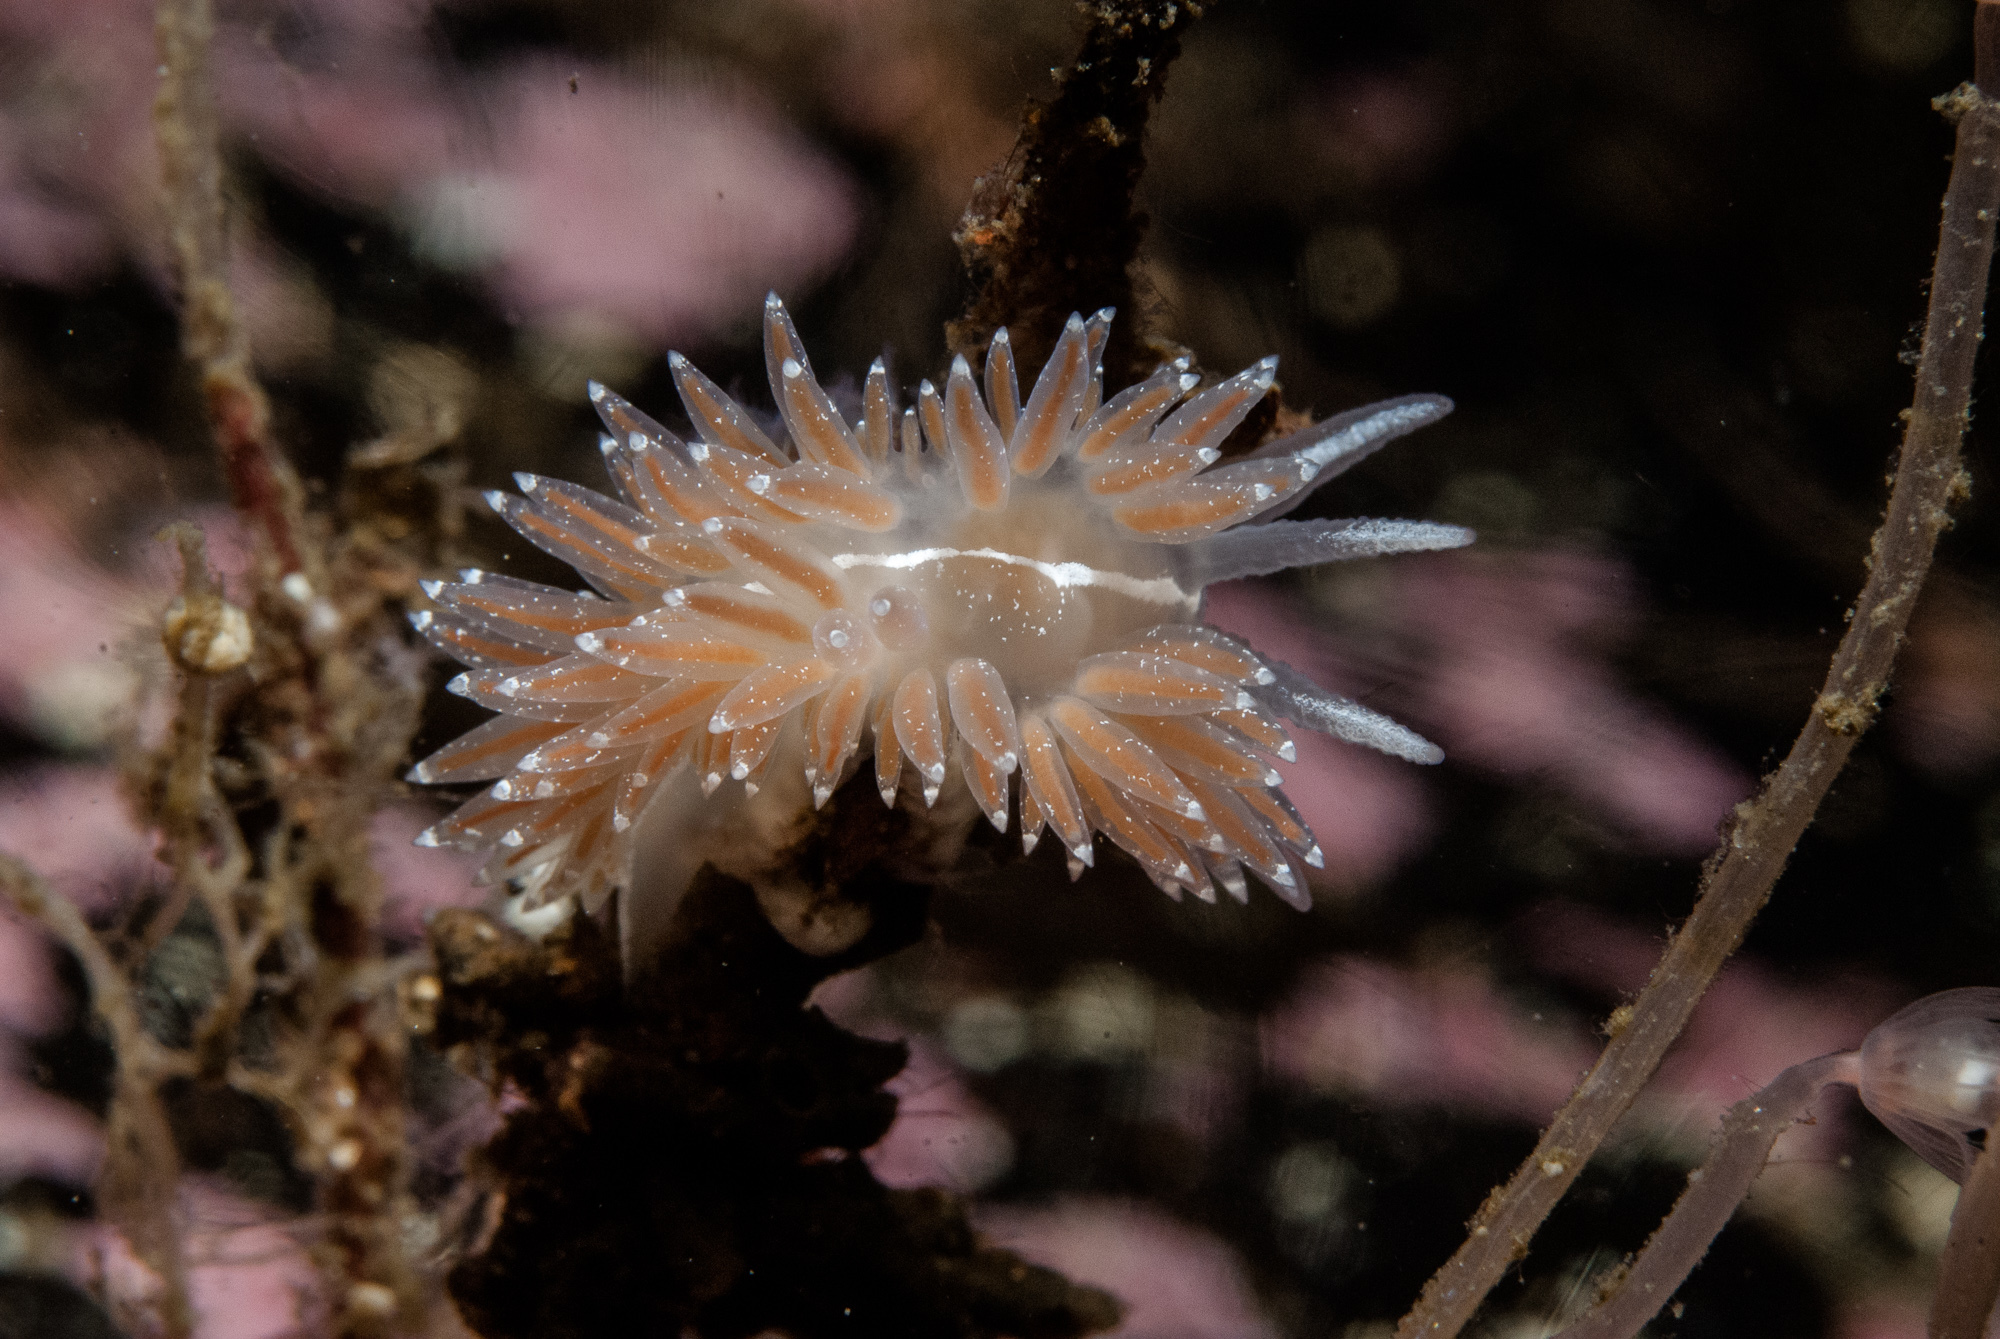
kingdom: Animalia
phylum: Mollusca
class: Gastropoda
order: Nudibranchia
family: Coryphellidae
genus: Coryphella
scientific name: Coryphella orjani
